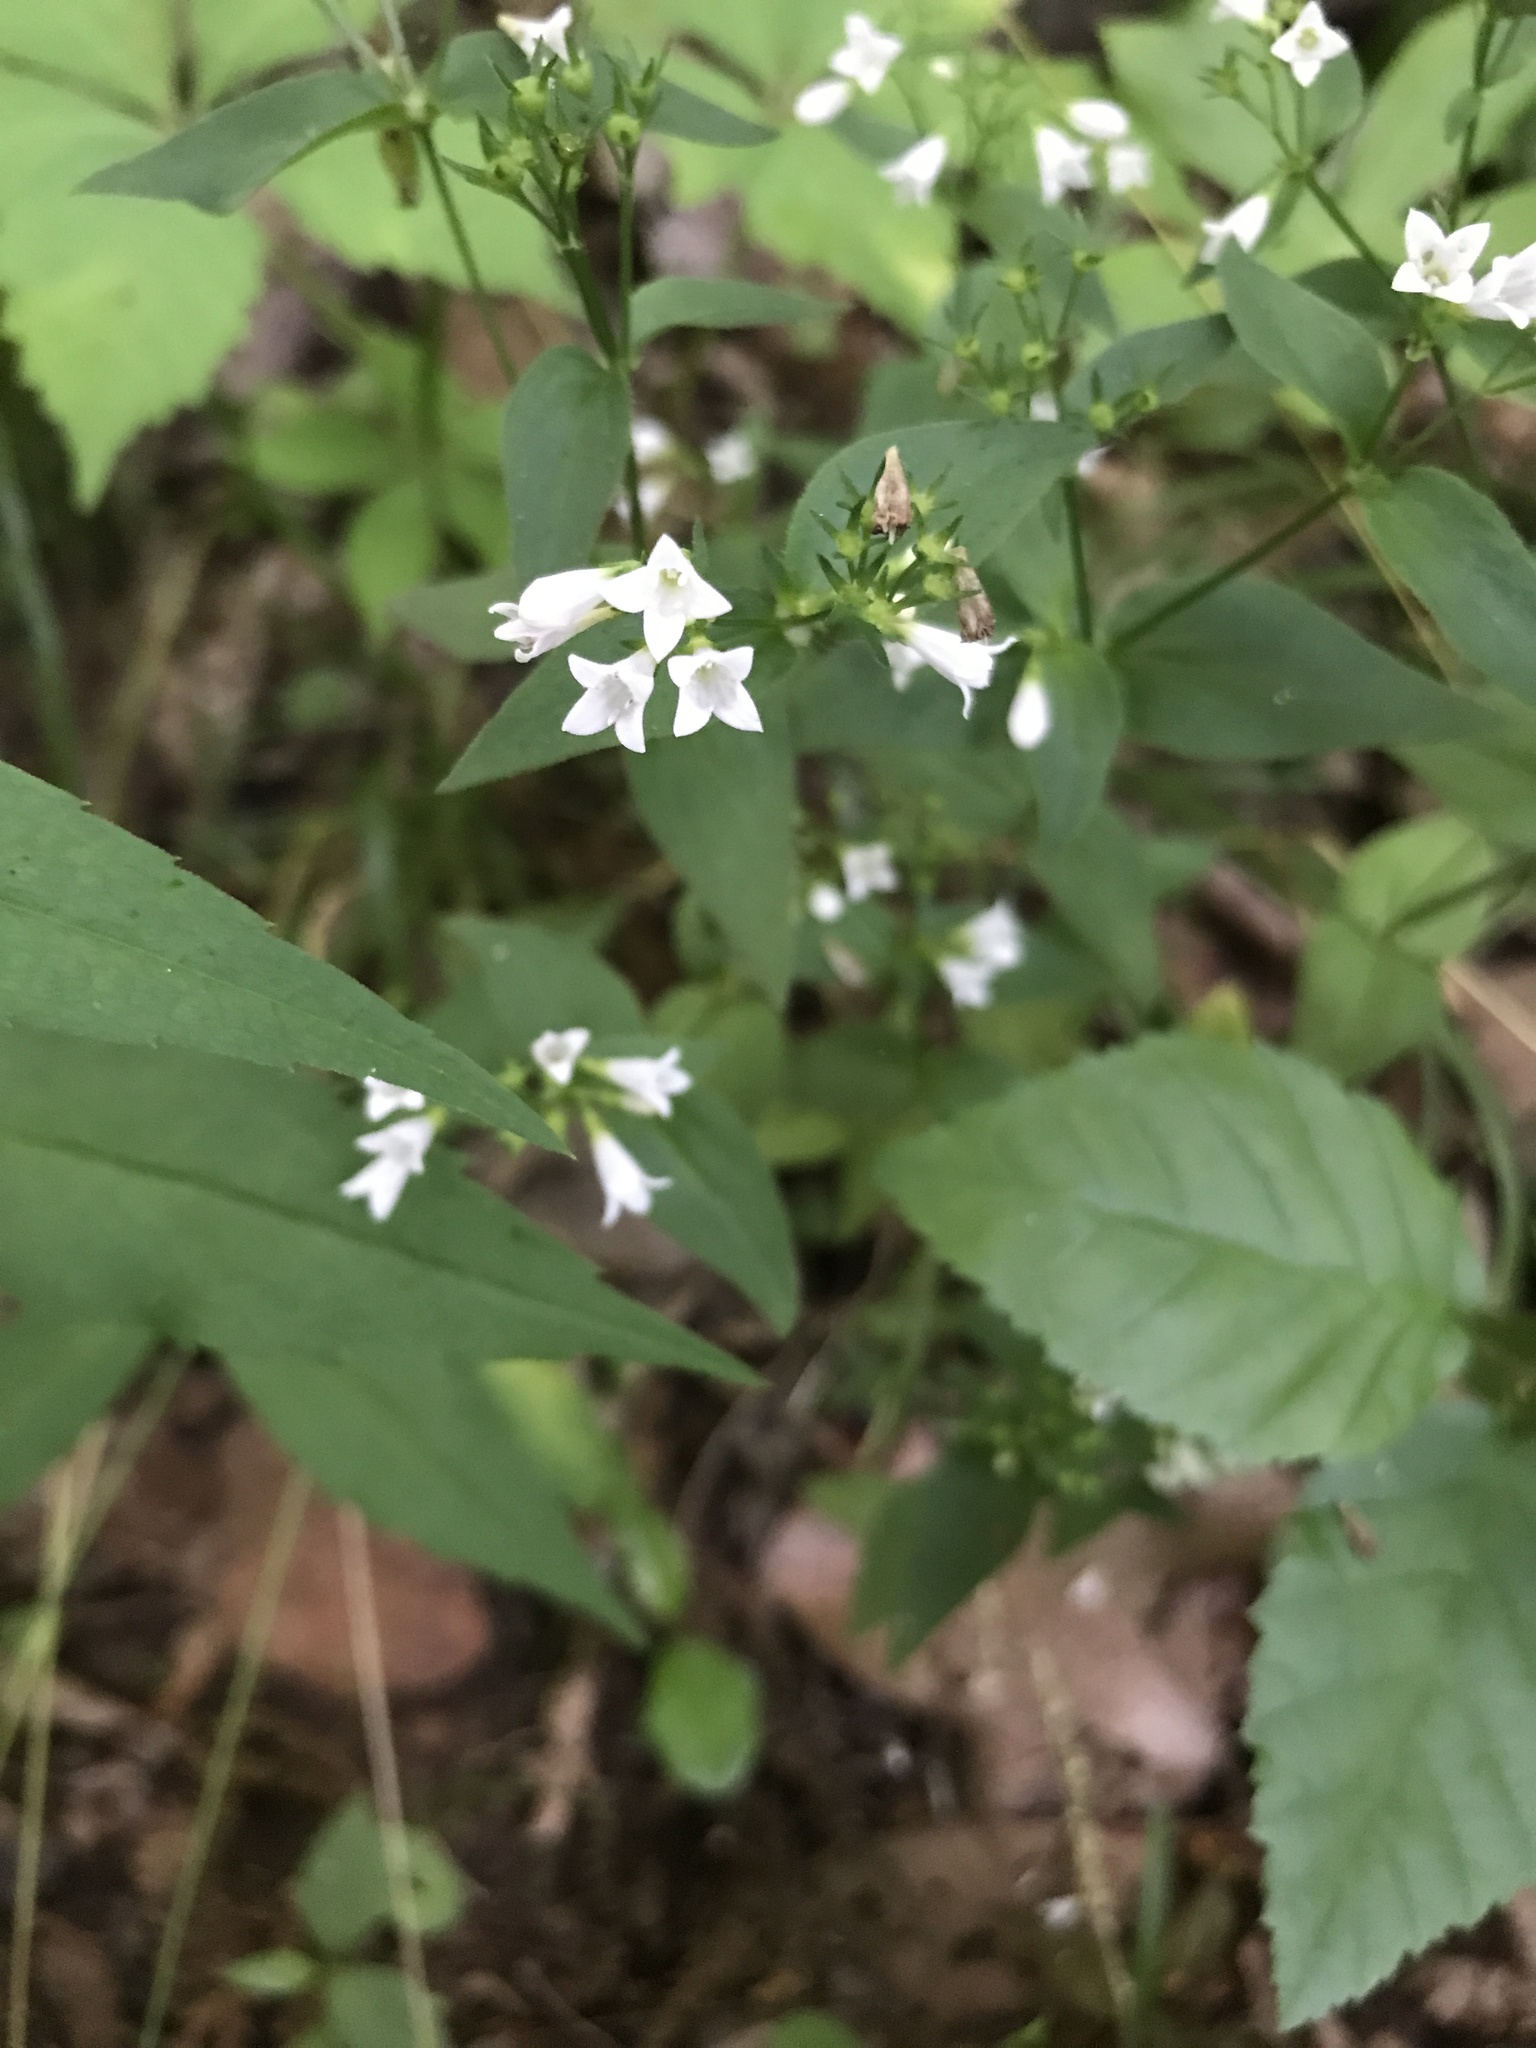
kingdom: Plantae
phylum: Tracheophyta
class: Magnoliopsida
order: Gentianales
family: Rubiaceae
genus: Houstonia
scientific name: Houstonia purpurea
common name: Summer bluet
